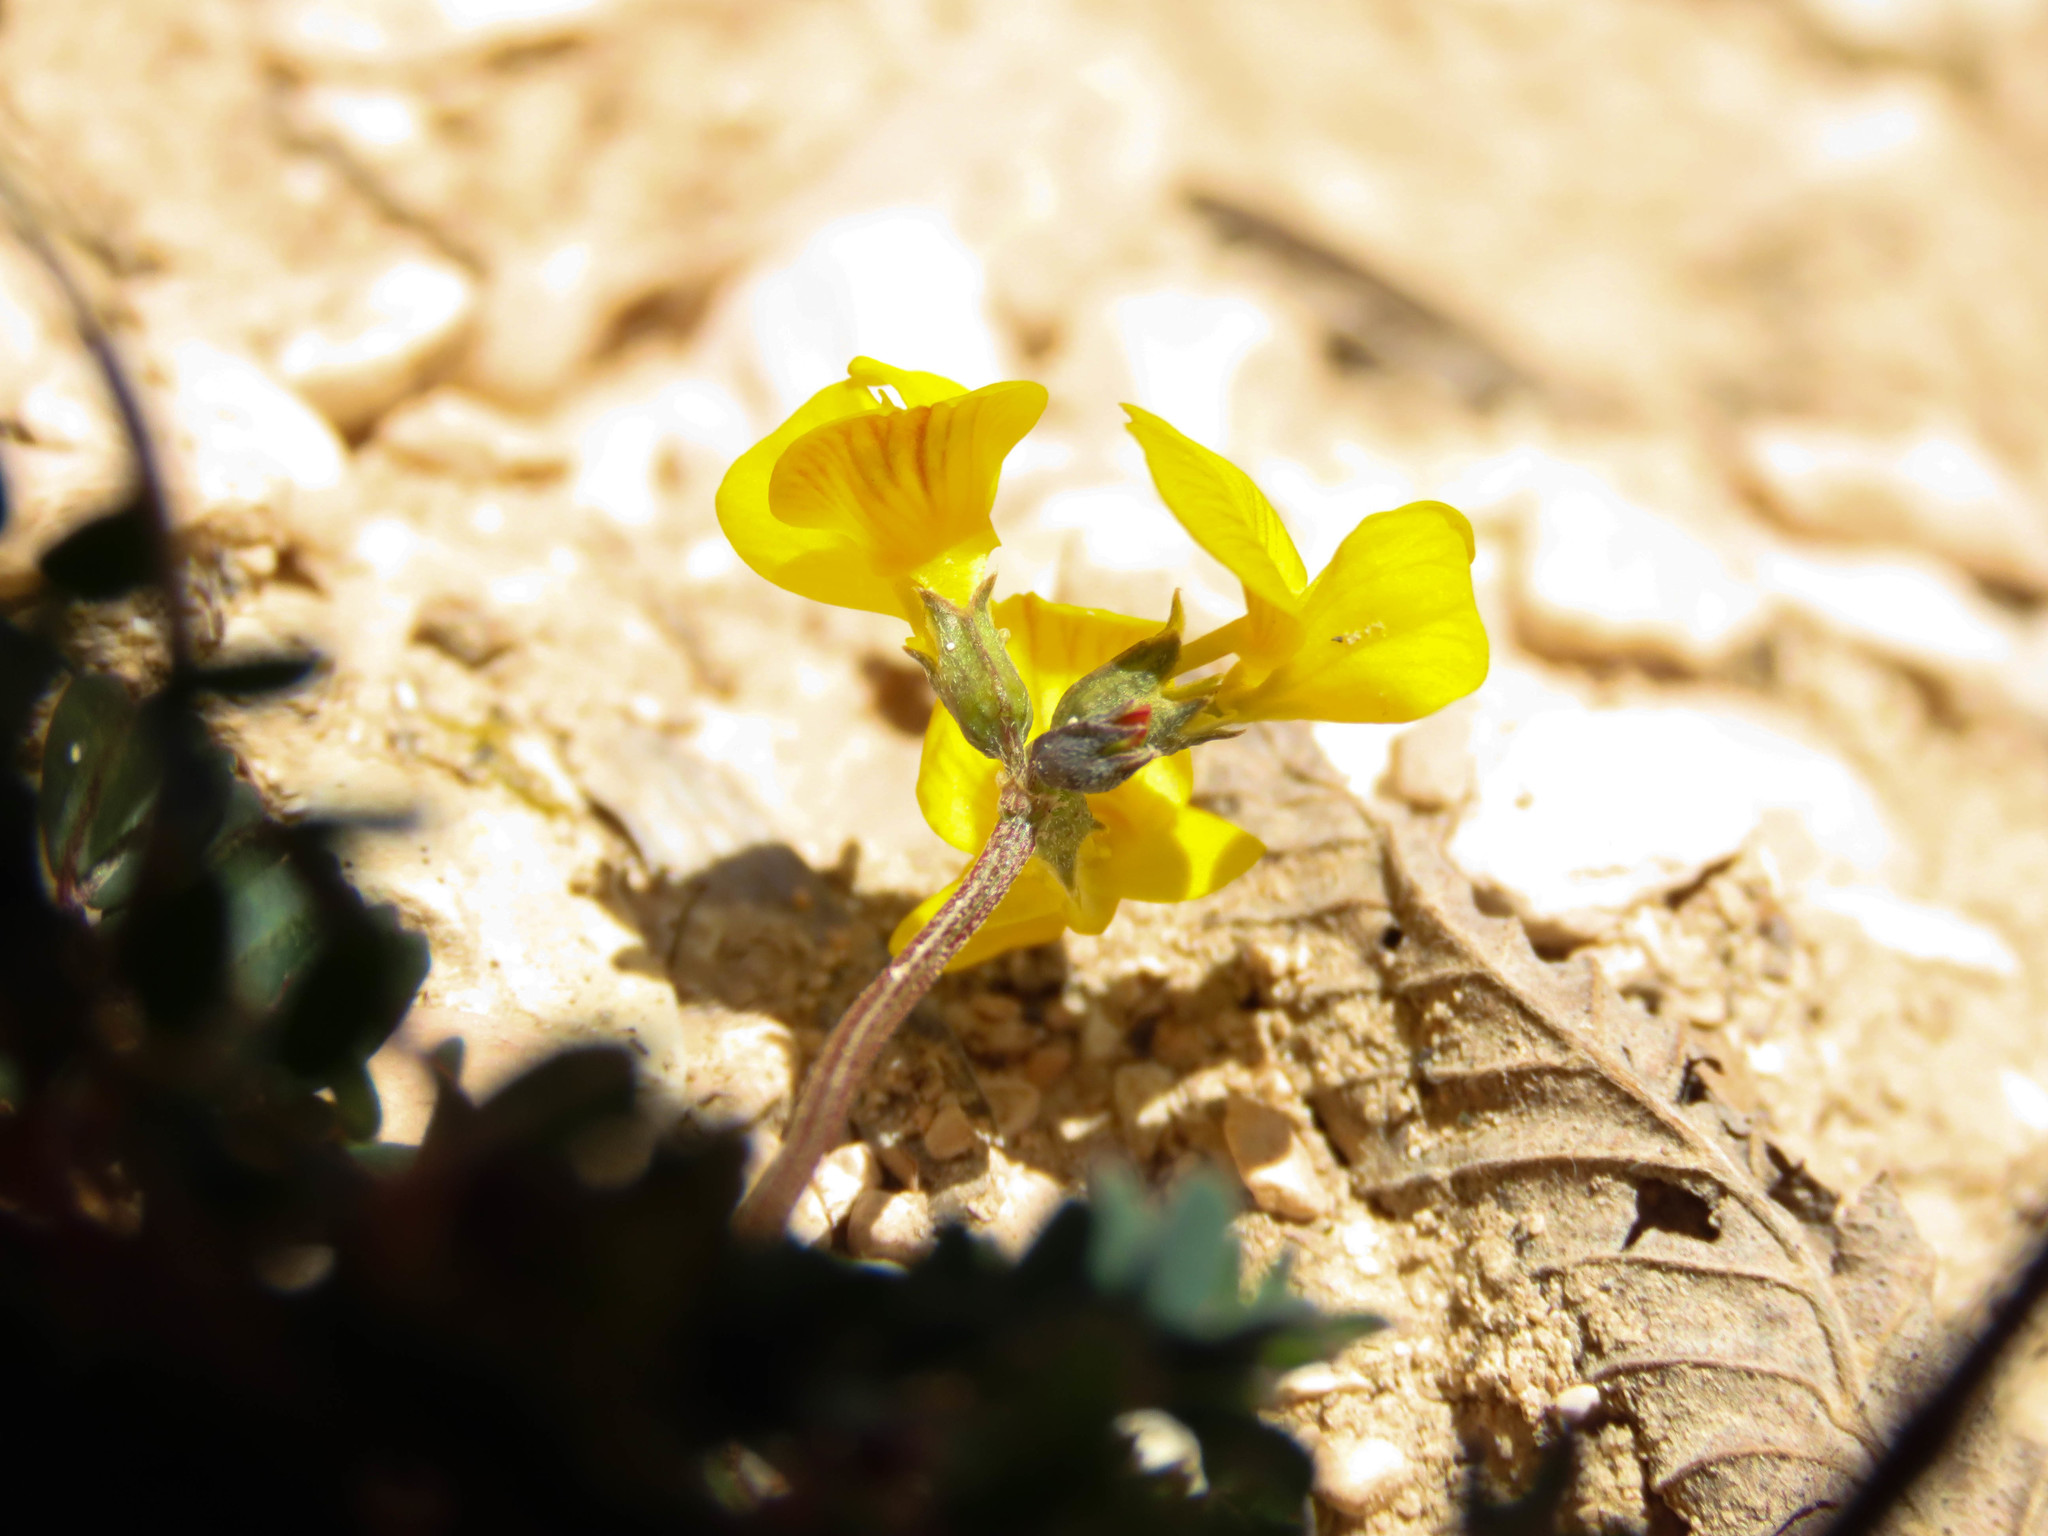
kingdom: Plantae
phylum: Tracheophyta
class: Magnoliopsida
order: Fabales
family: Fabaceae
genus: Hippocrepis
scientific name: Hippocrepis comosa
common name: Horseshoe vetch
